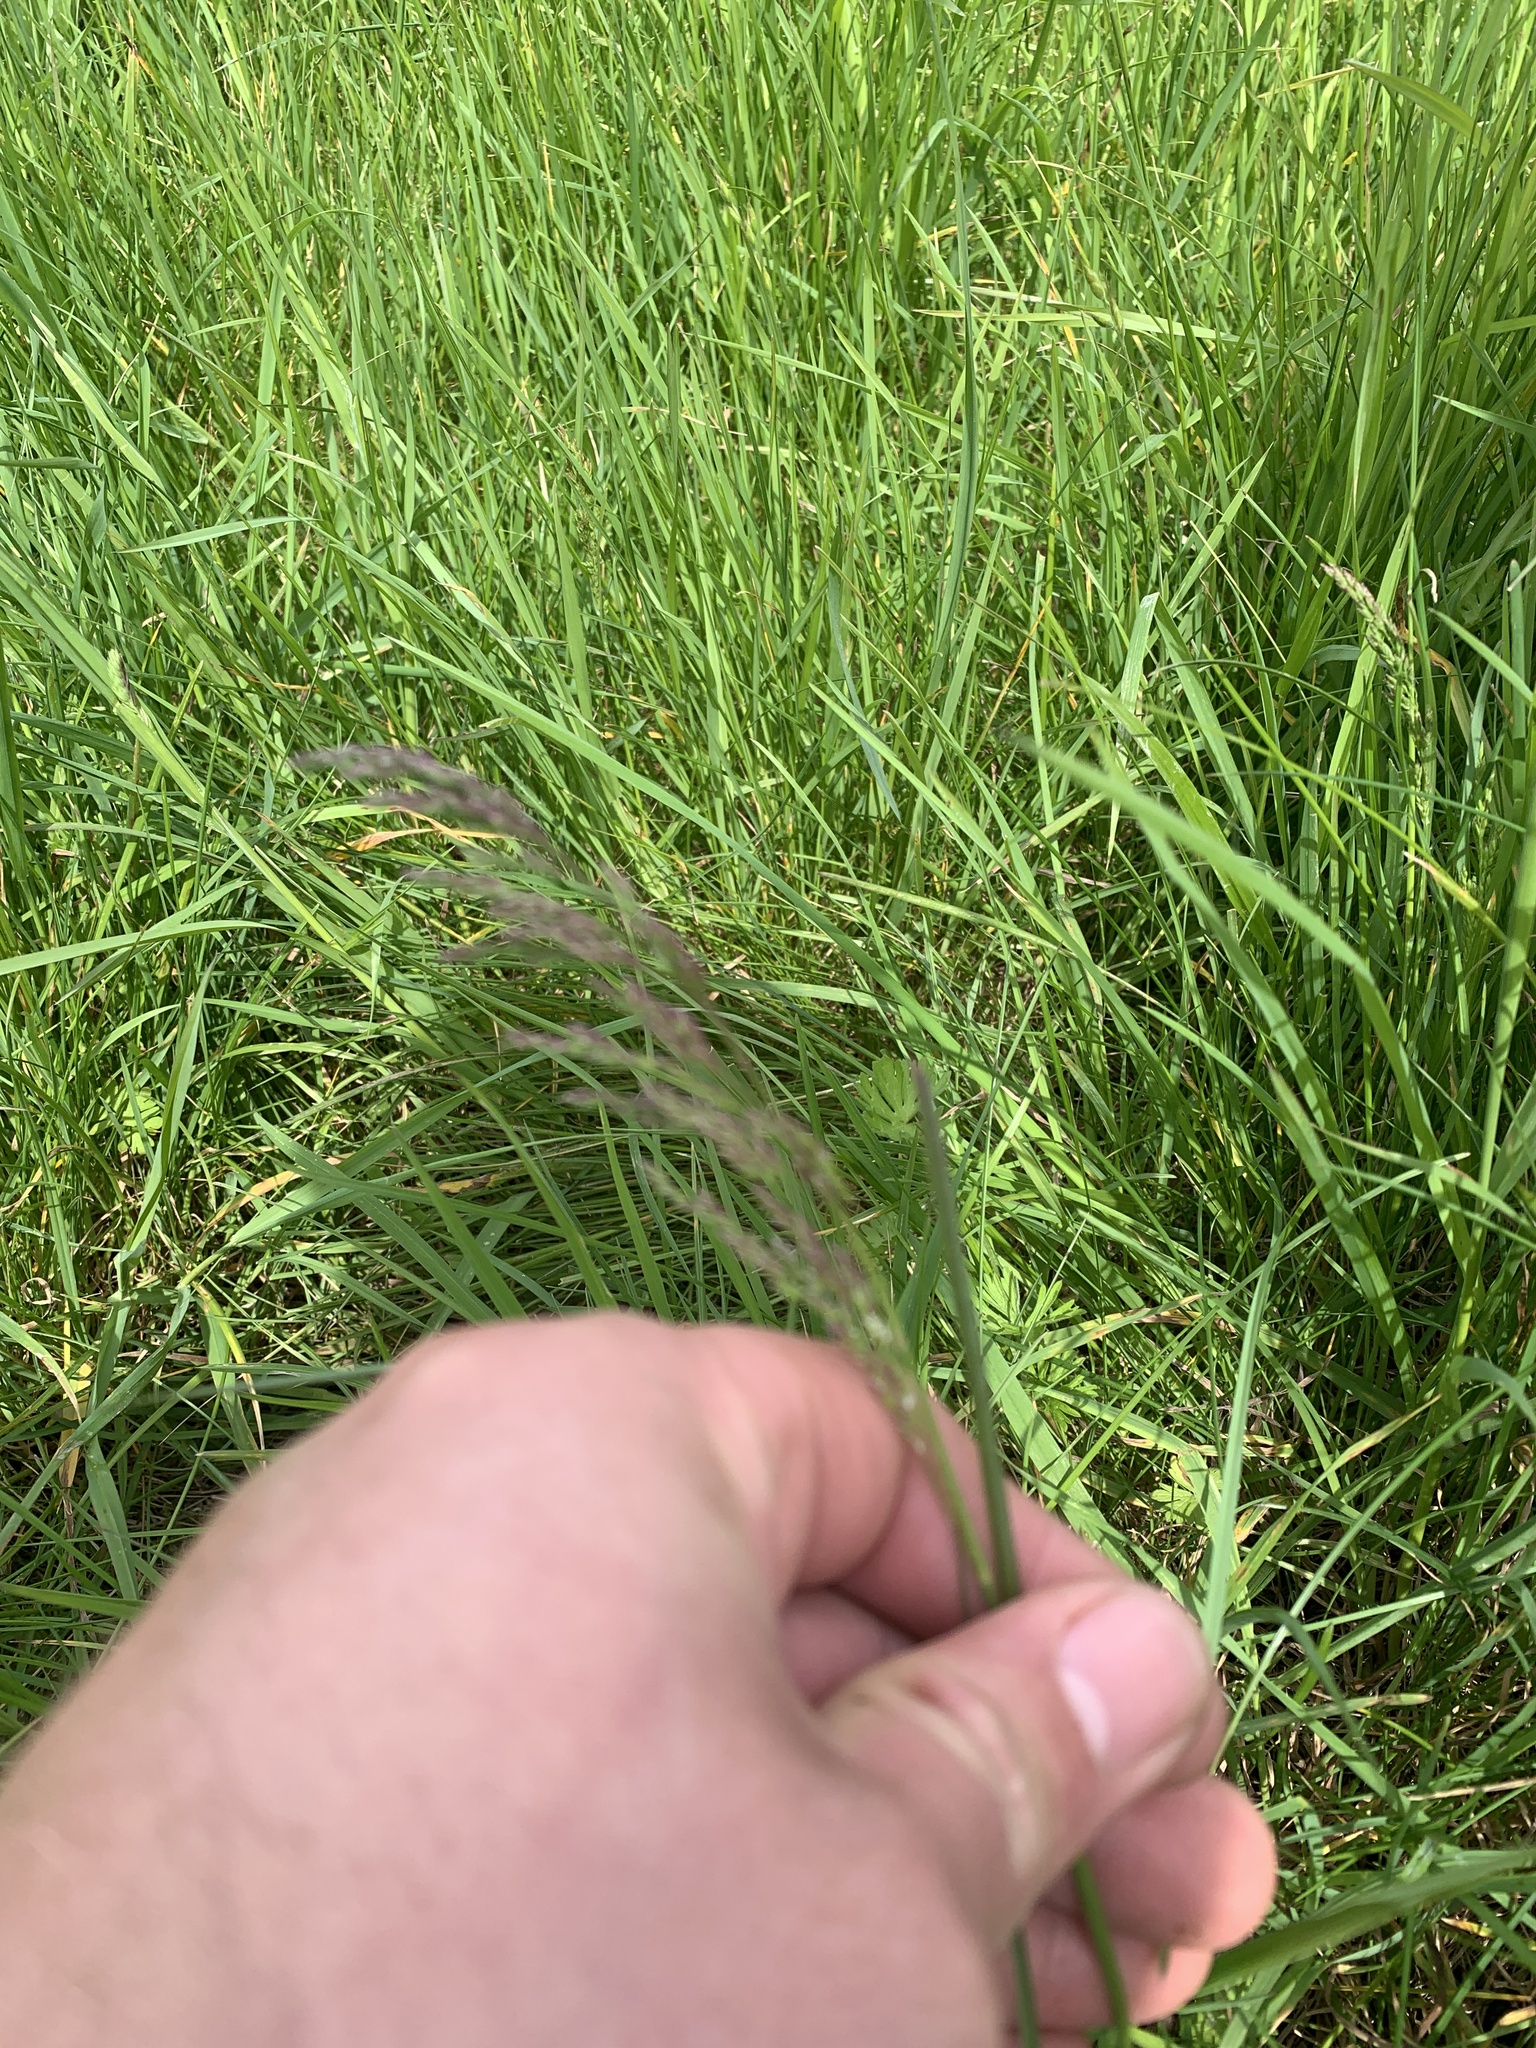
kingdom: Plantae
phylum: Tracheophyta
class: Liliopsida
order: Poales
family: Poaceae
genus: Calamagrostis
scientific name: Calamagrostis canadensis
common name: Canada bluejoint
